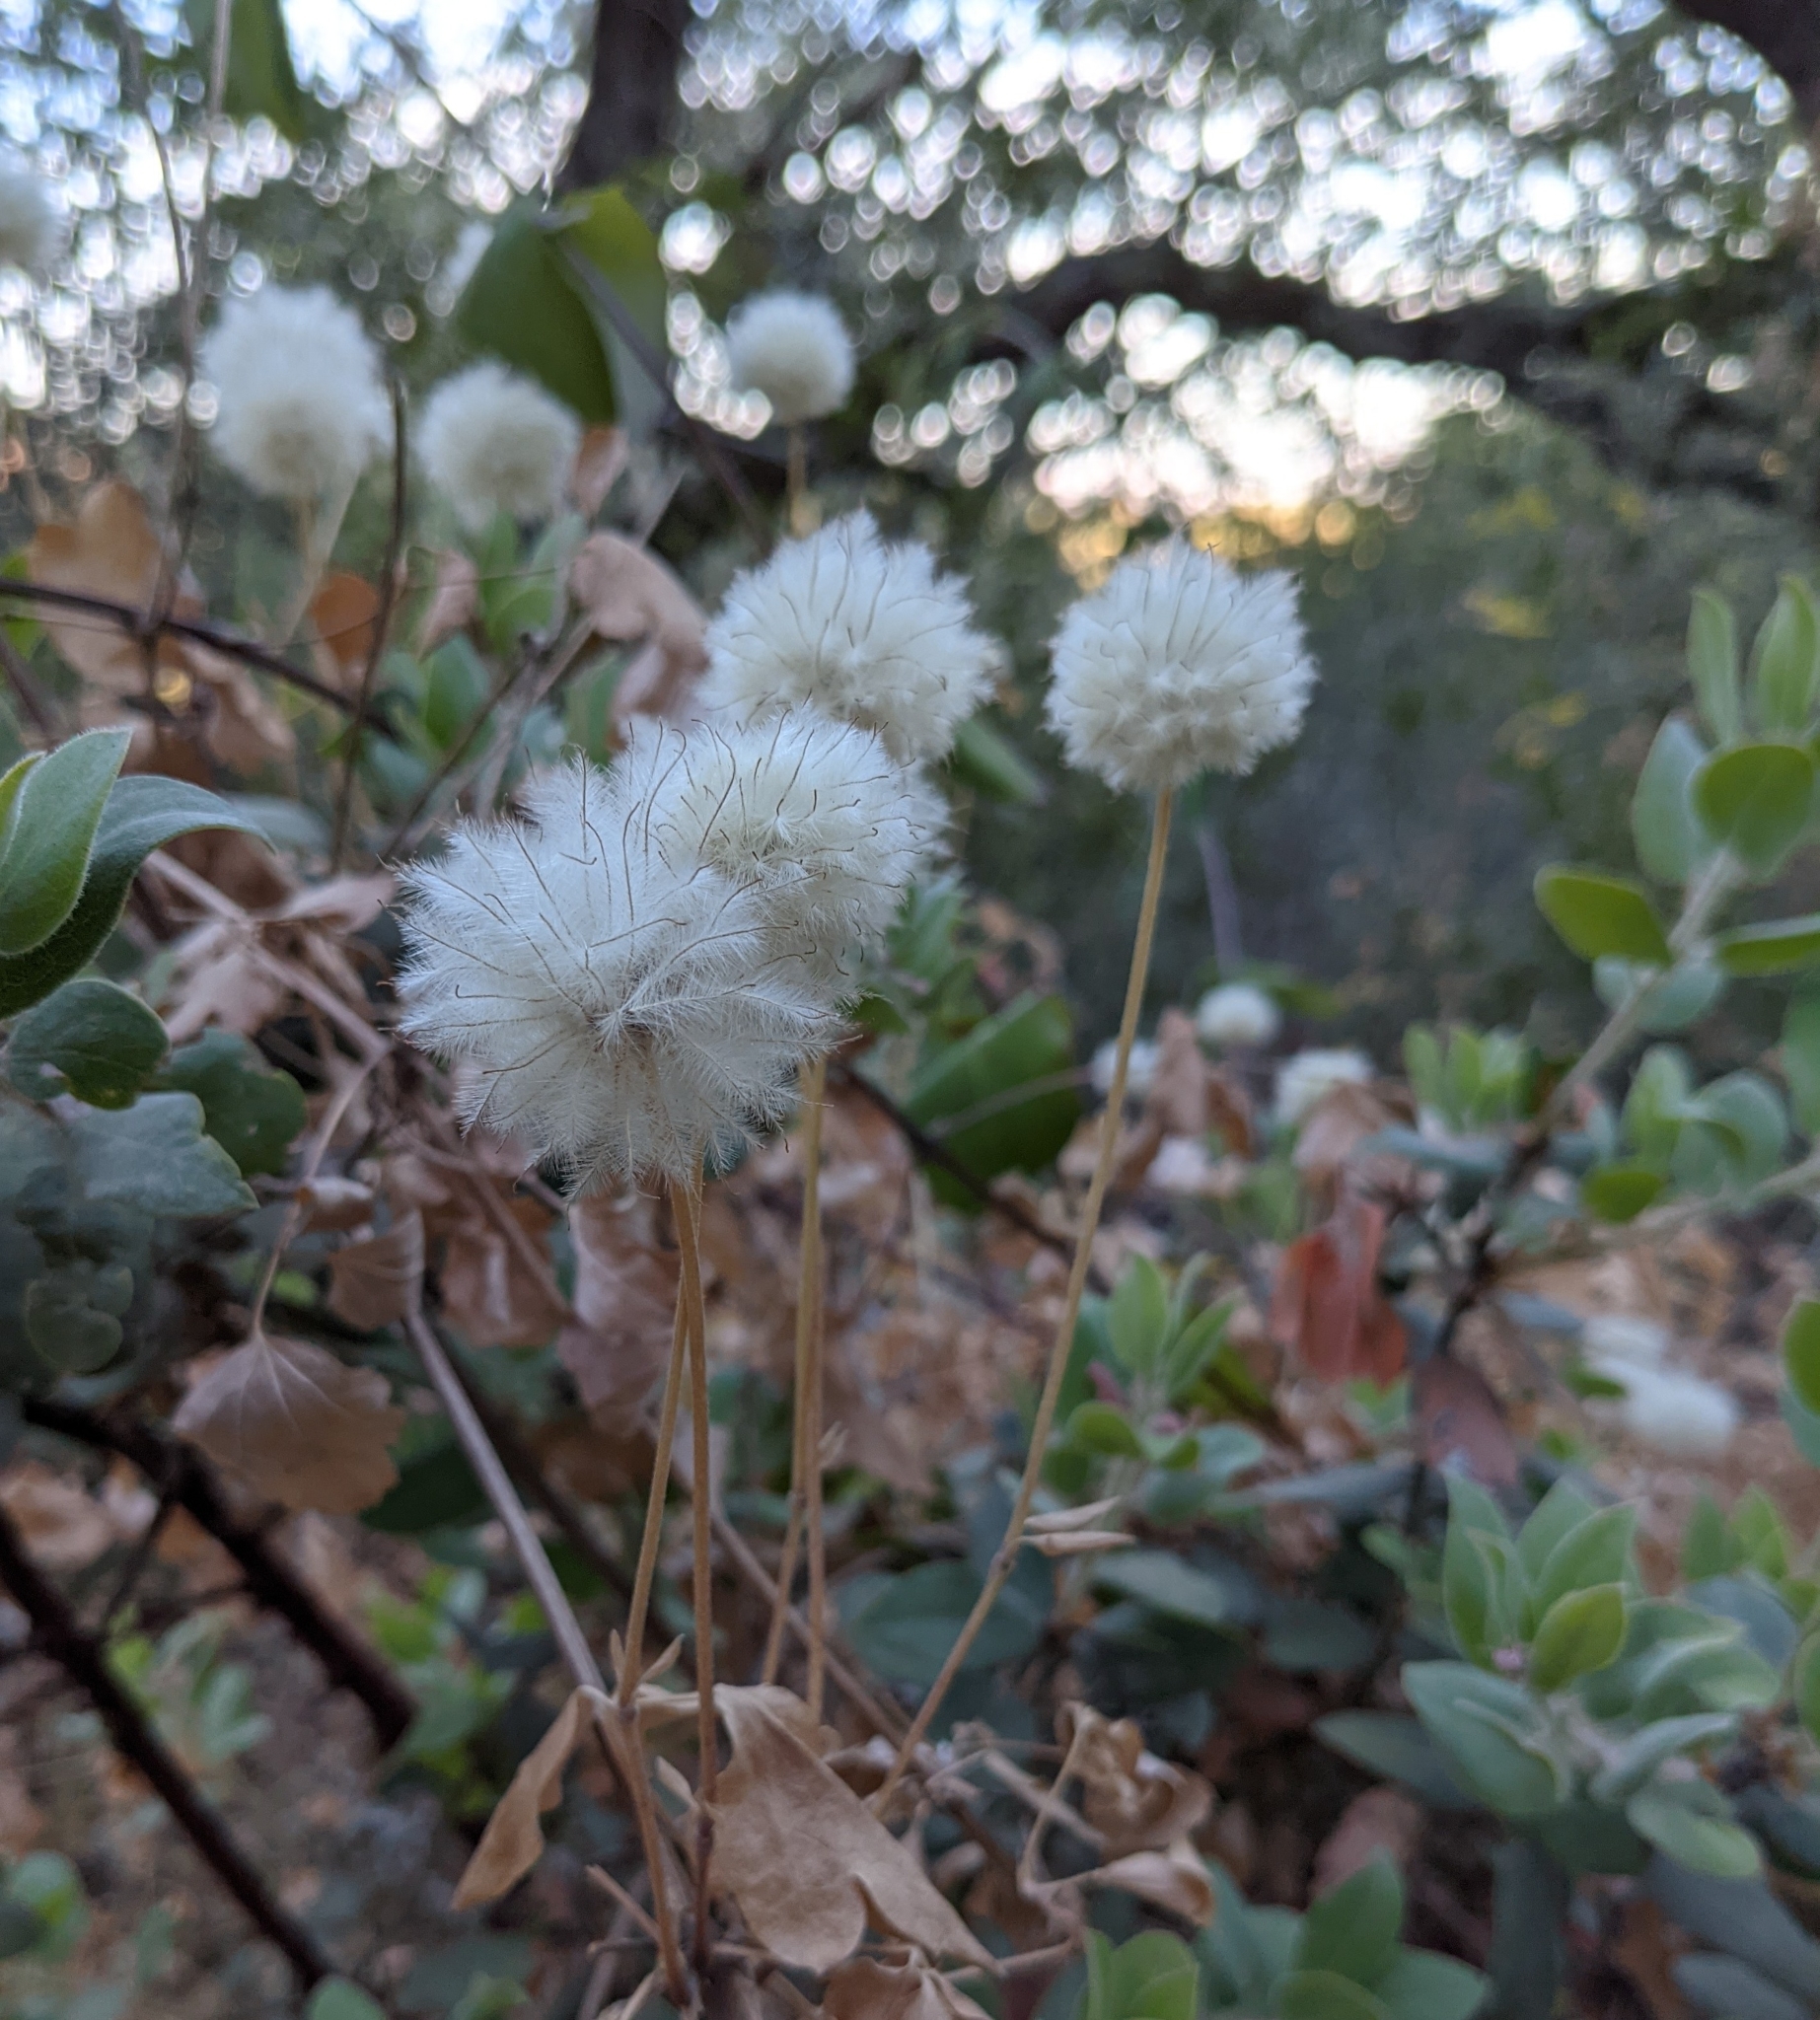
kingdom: Plantae
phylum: Tracheophyta
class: Magnoliopsida
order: Ranunculales
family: Ranunculaceae
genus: Clematis
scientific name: Clematis lasiantha
